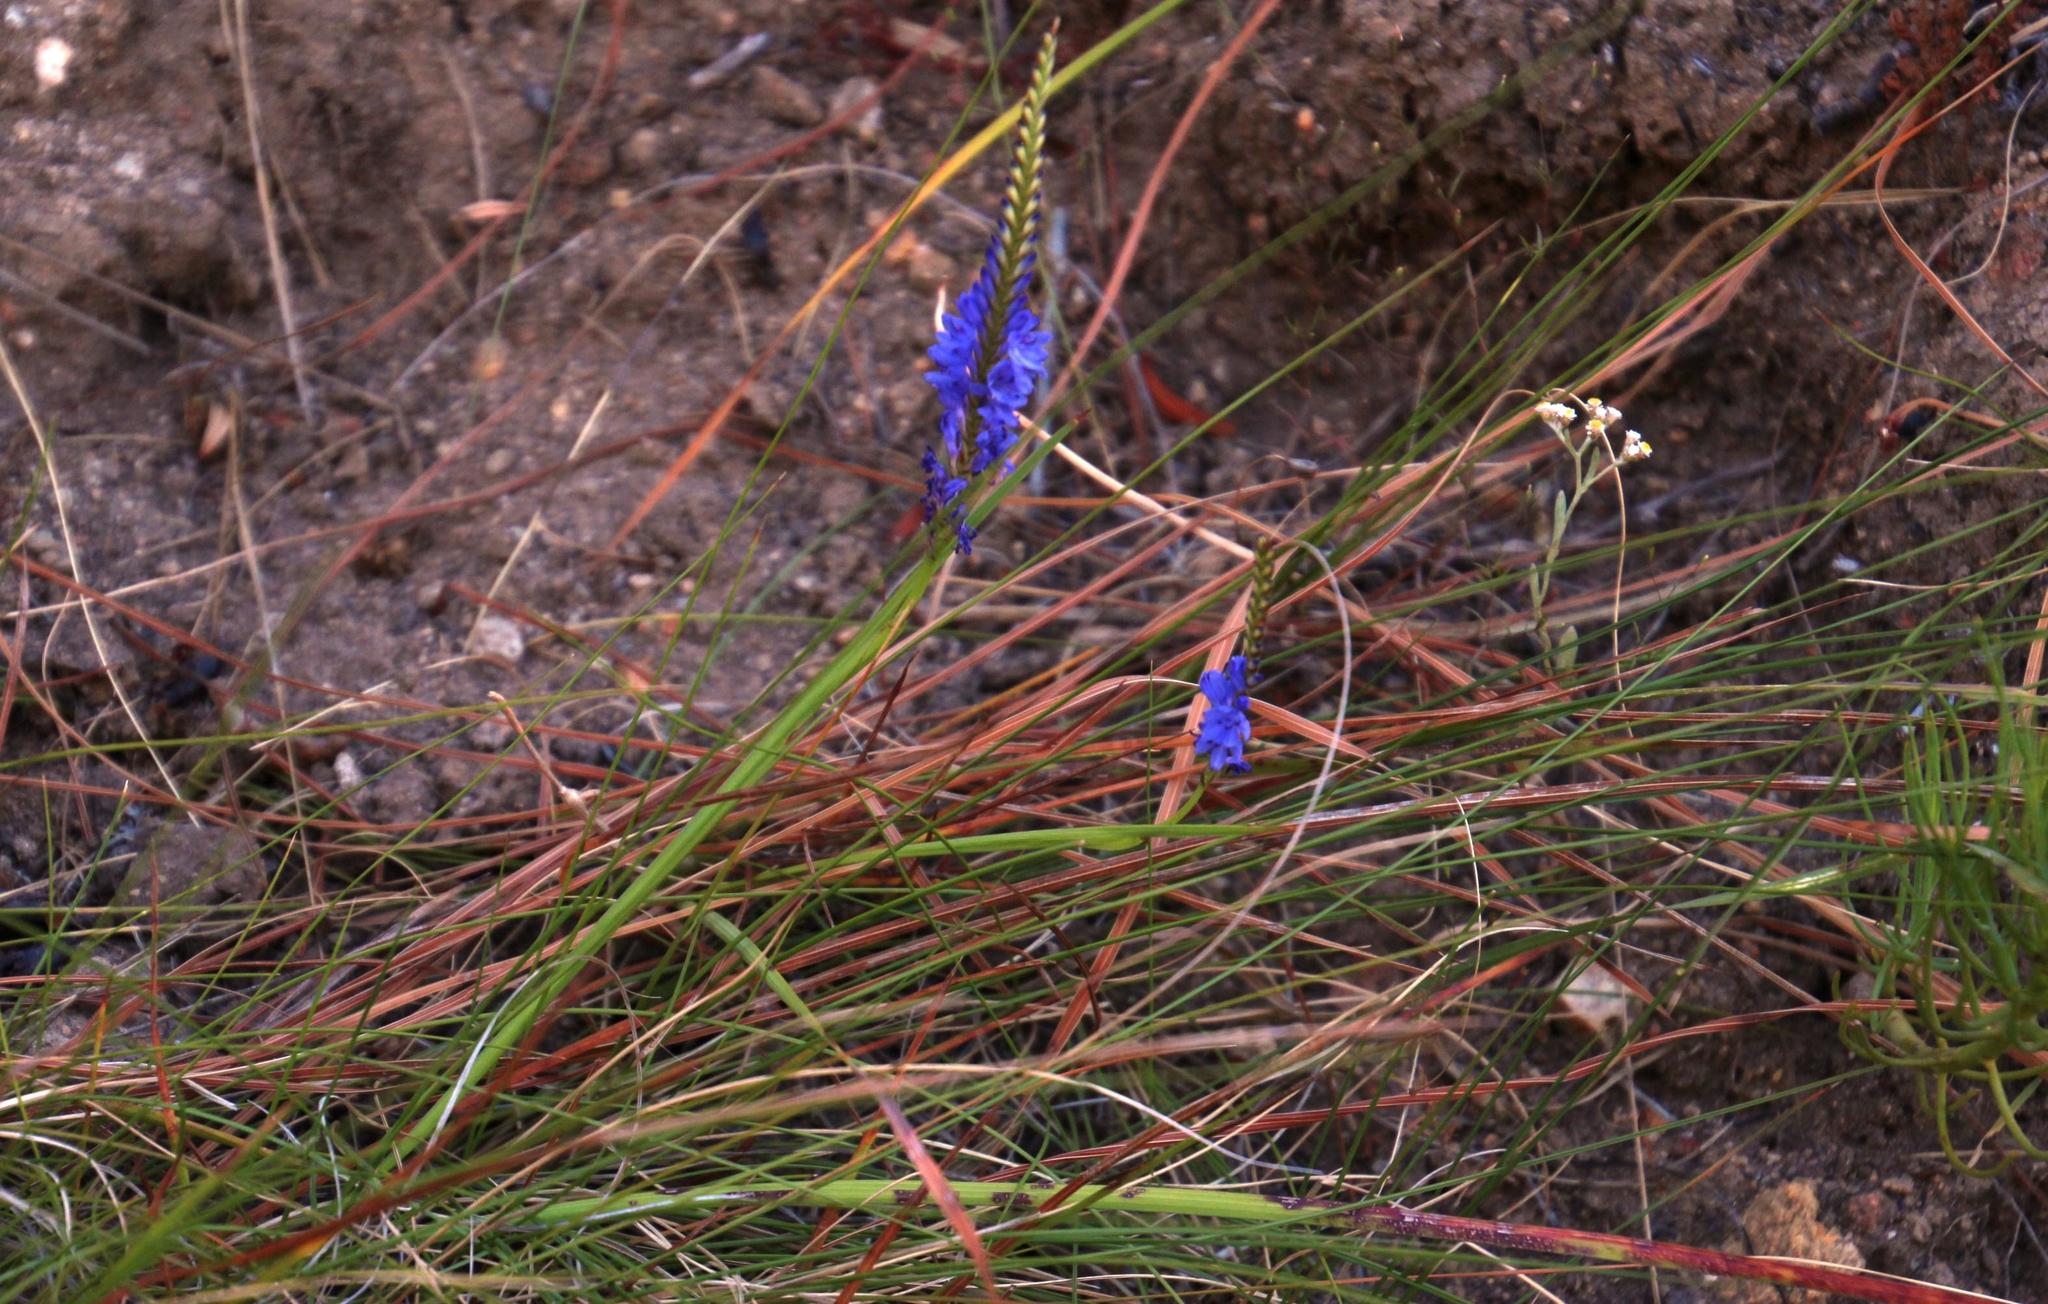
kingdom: Plantae
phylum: Tracheophyta
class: Liliopsida
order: Asparagales
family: Iridaceae
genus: Micranthus
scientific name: Micranthus plantagineus
